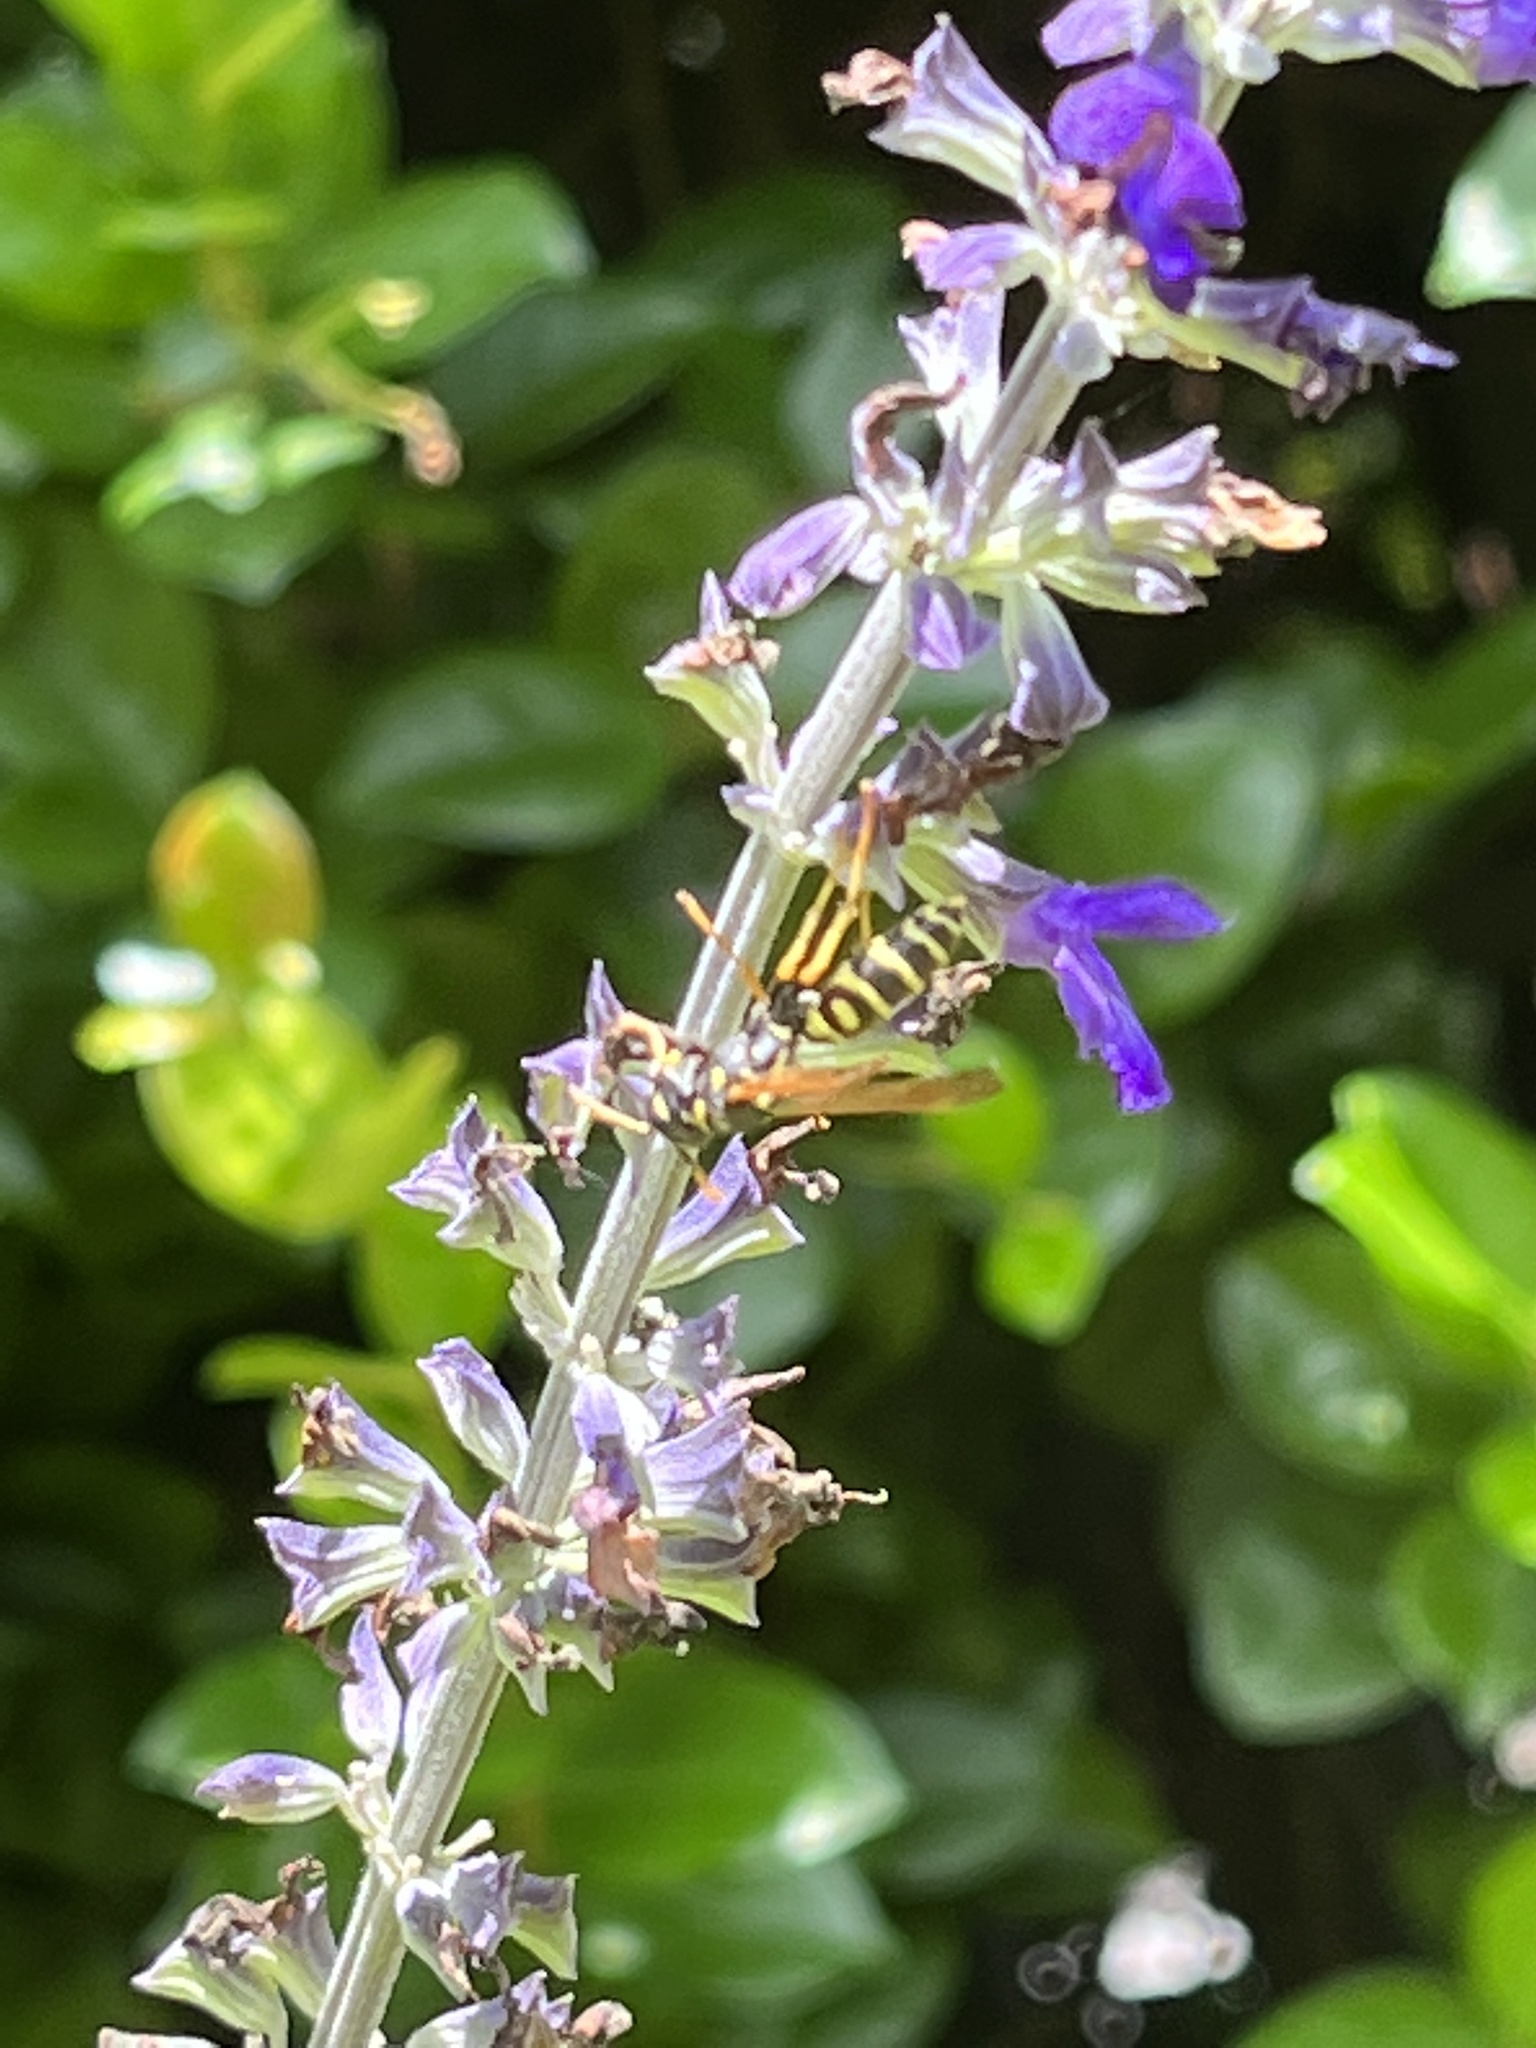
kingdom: Animalia
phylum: Arthropoda
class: Insecta
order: Hymenoptera
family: Eumenidae
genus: Polistes
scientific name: Polistes dominula
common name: Paper wasp
